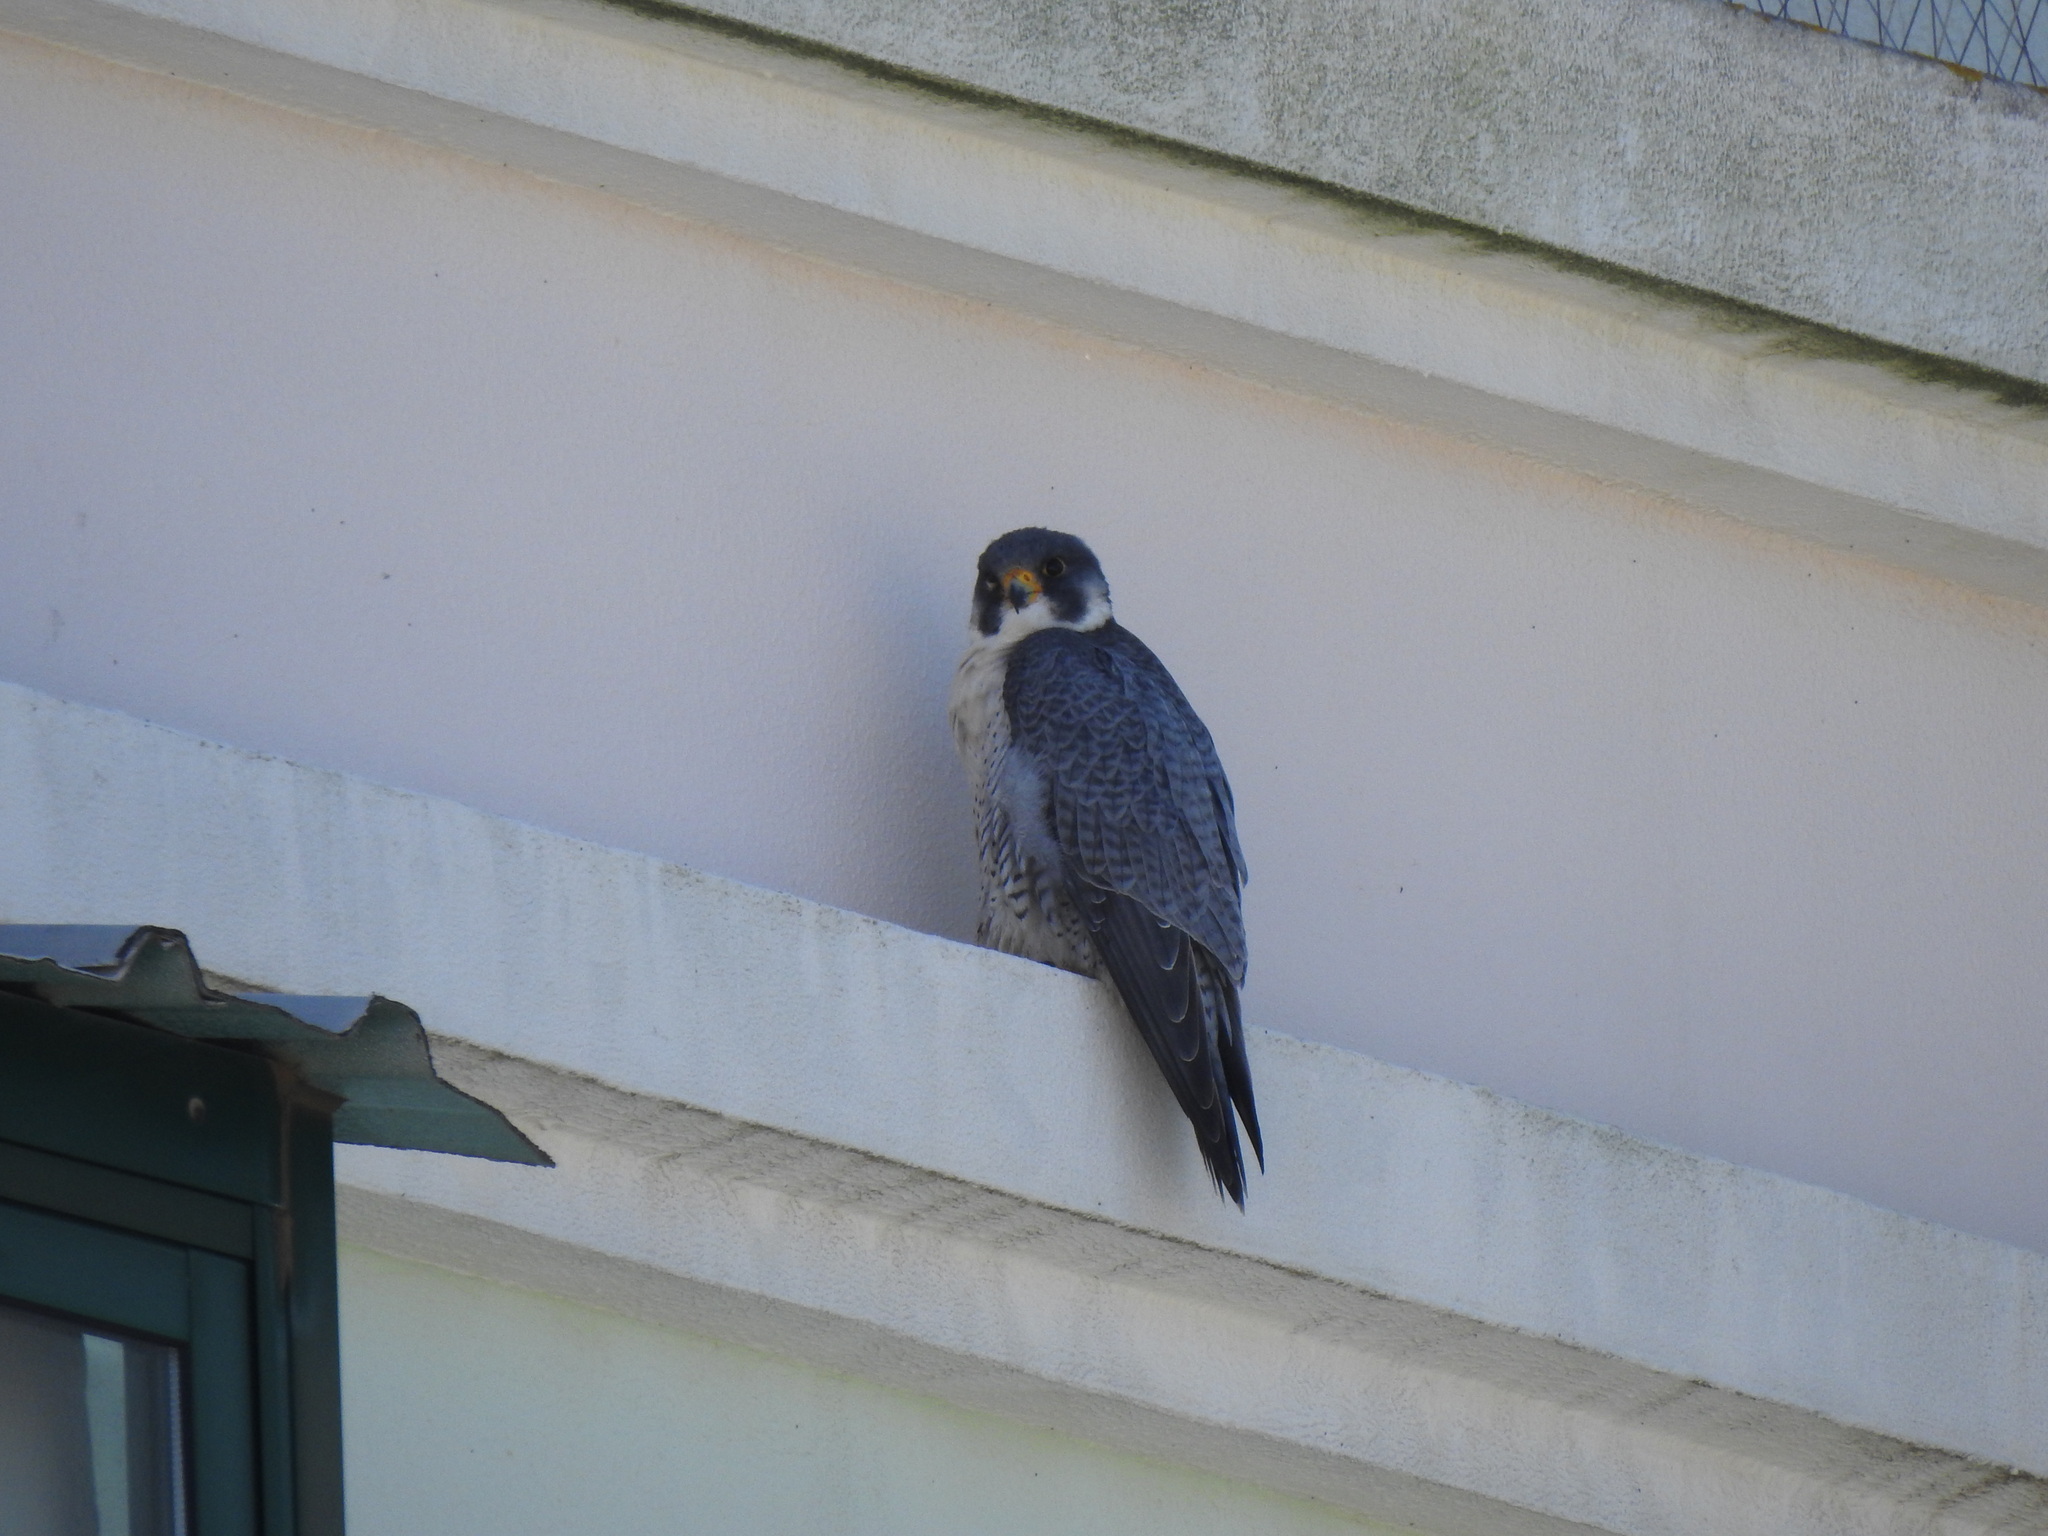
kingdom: Animalia
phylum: Chordata
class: Aves
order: Falconiformes
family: Falconidae
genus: Falco
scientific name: Falco peregrinus
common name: Peregrine falcon
